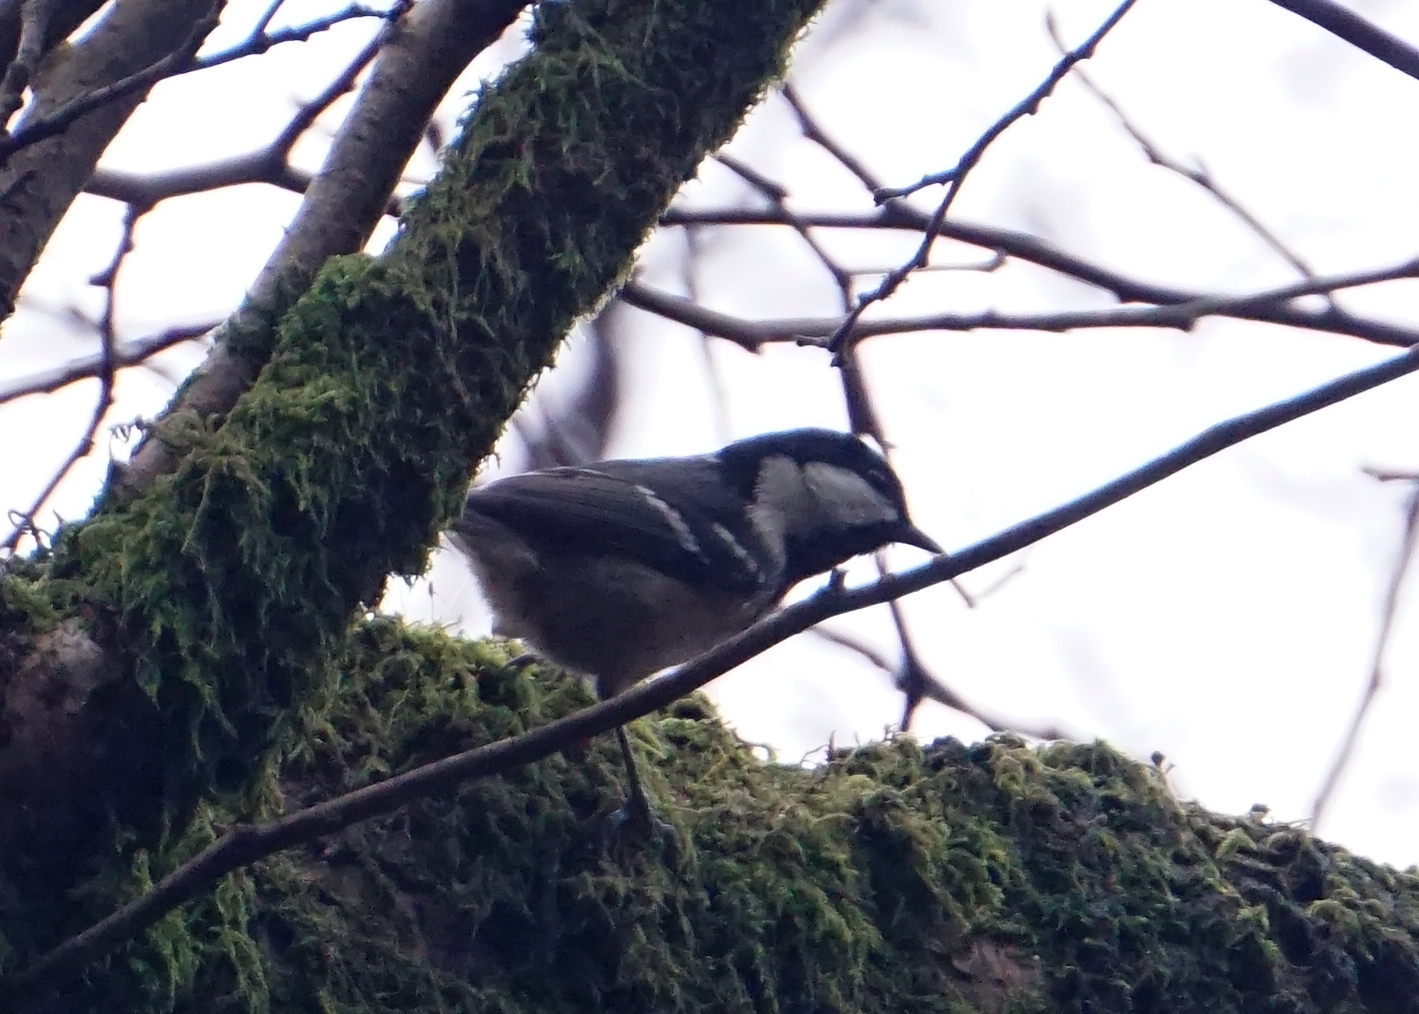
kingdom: Animalia
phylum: Chordata
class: Aves
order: Passeriformes
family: Paridae
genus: Periparus
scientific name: Periparus ater
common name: Coal tit
